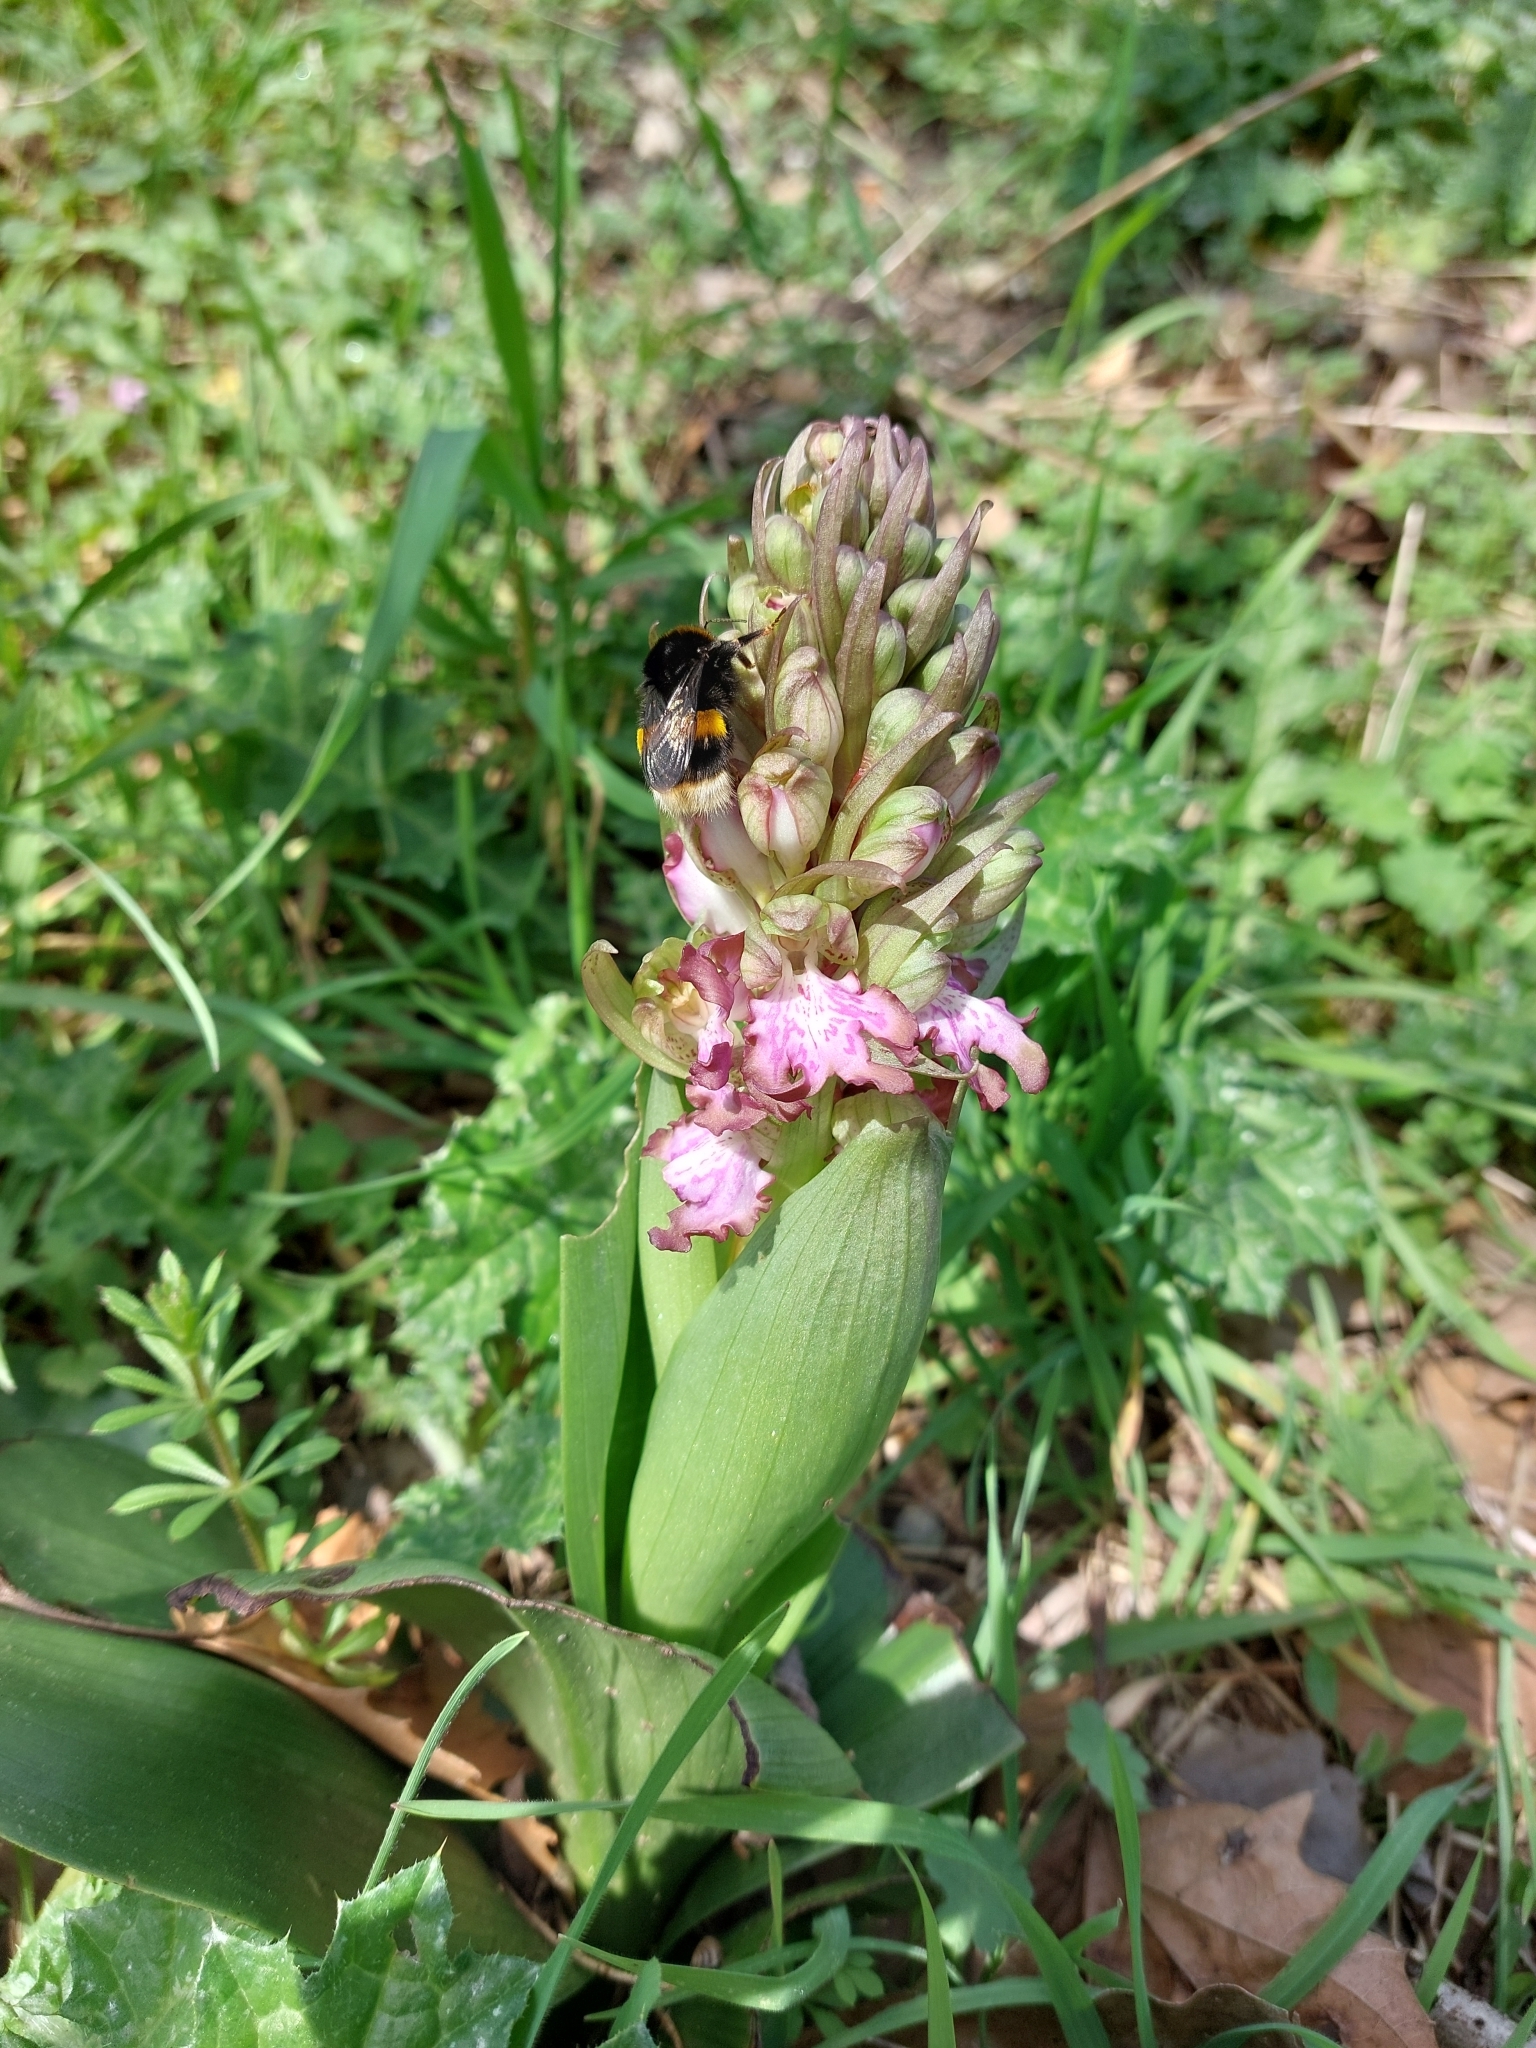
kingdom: Plantae
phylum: Tracheophyta
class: Liliopsida
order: Asparagales
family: Orchidaceae
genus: Himantoglossum
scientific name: Himantoglossum robertianum
